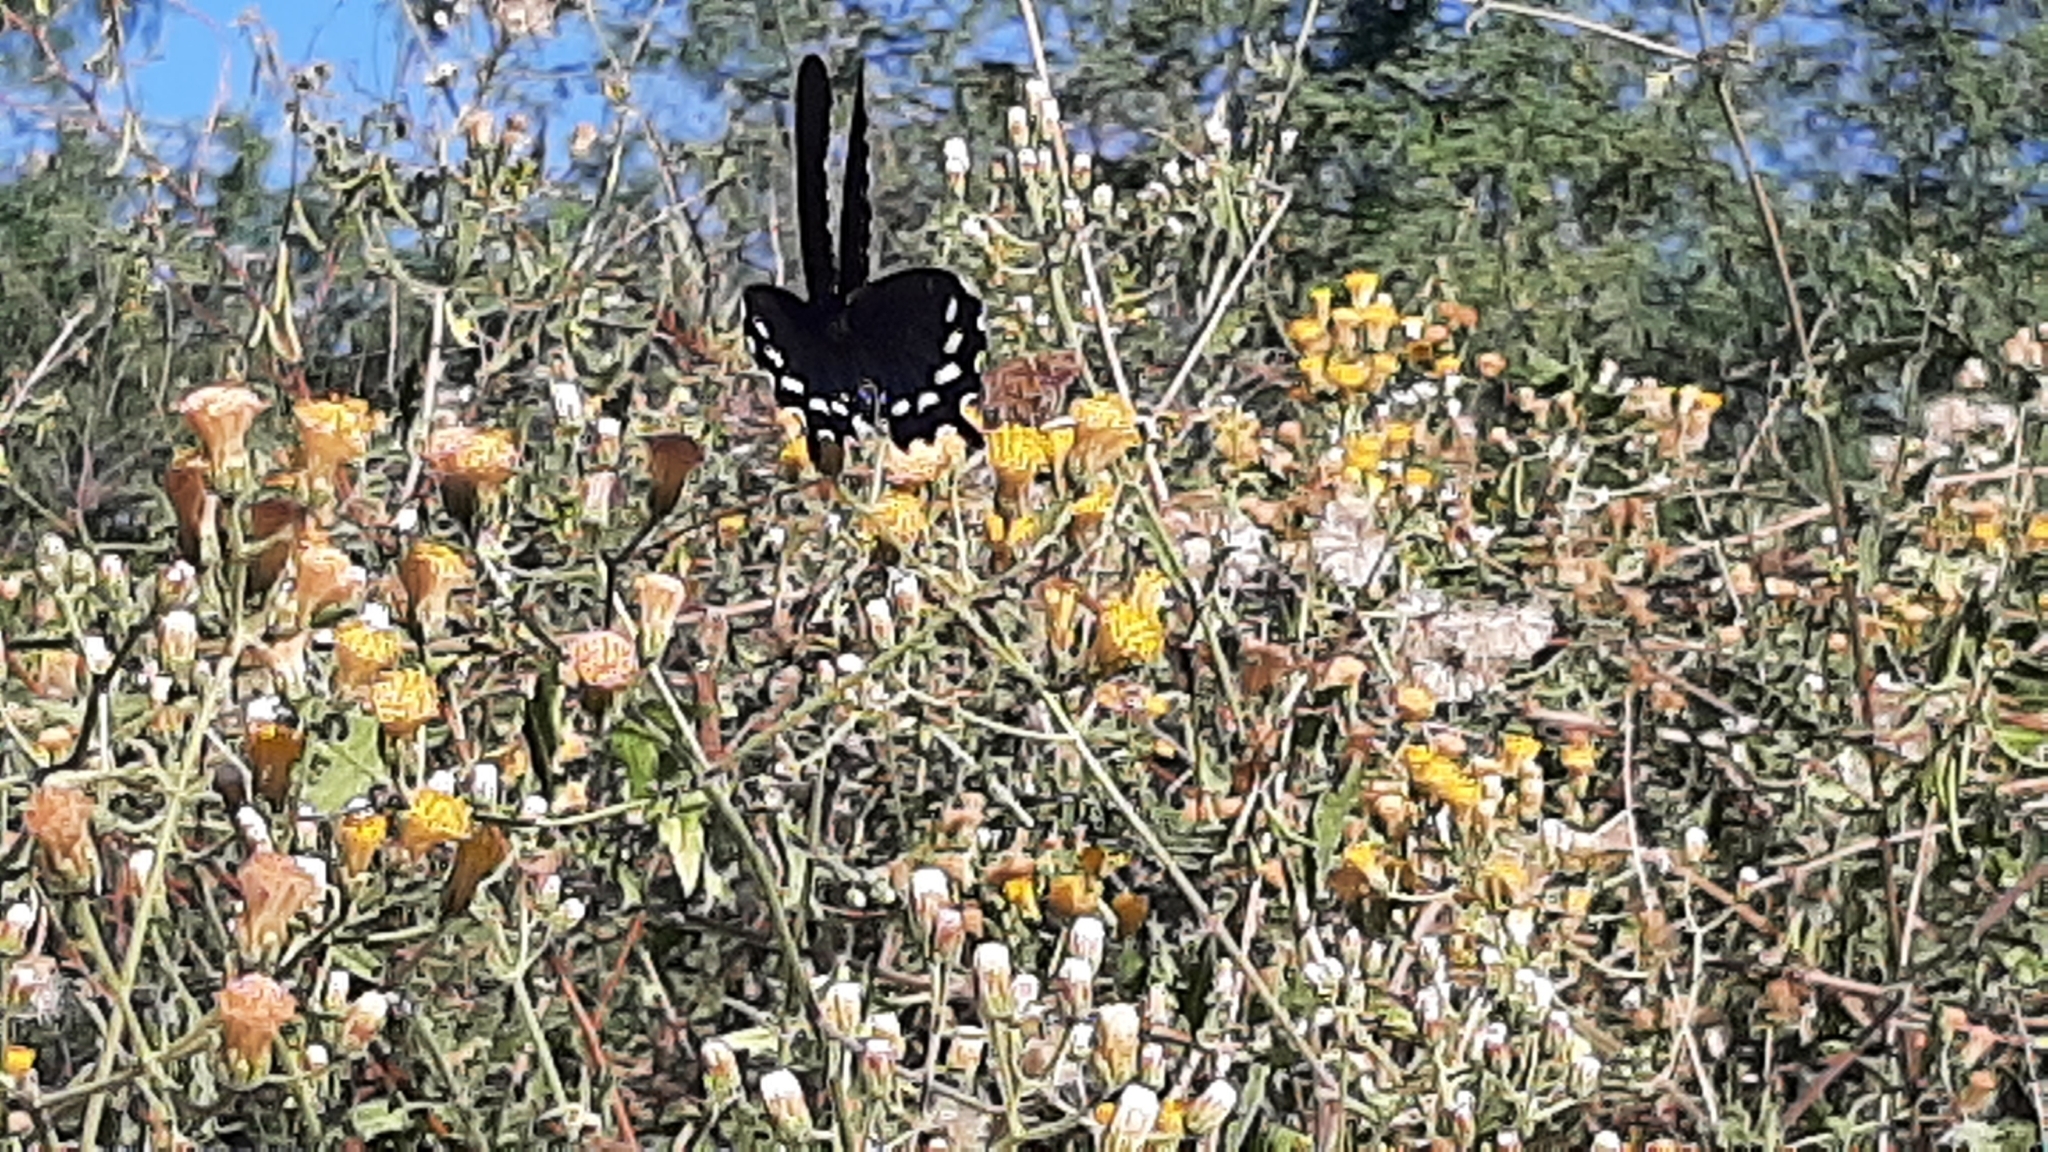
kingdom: Animalia
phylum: Arthropoda
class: Insecta
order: Lepidoptera
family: Papilionidae
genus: Battus
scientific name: Battus philenor
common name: Pipevine swallowtail
